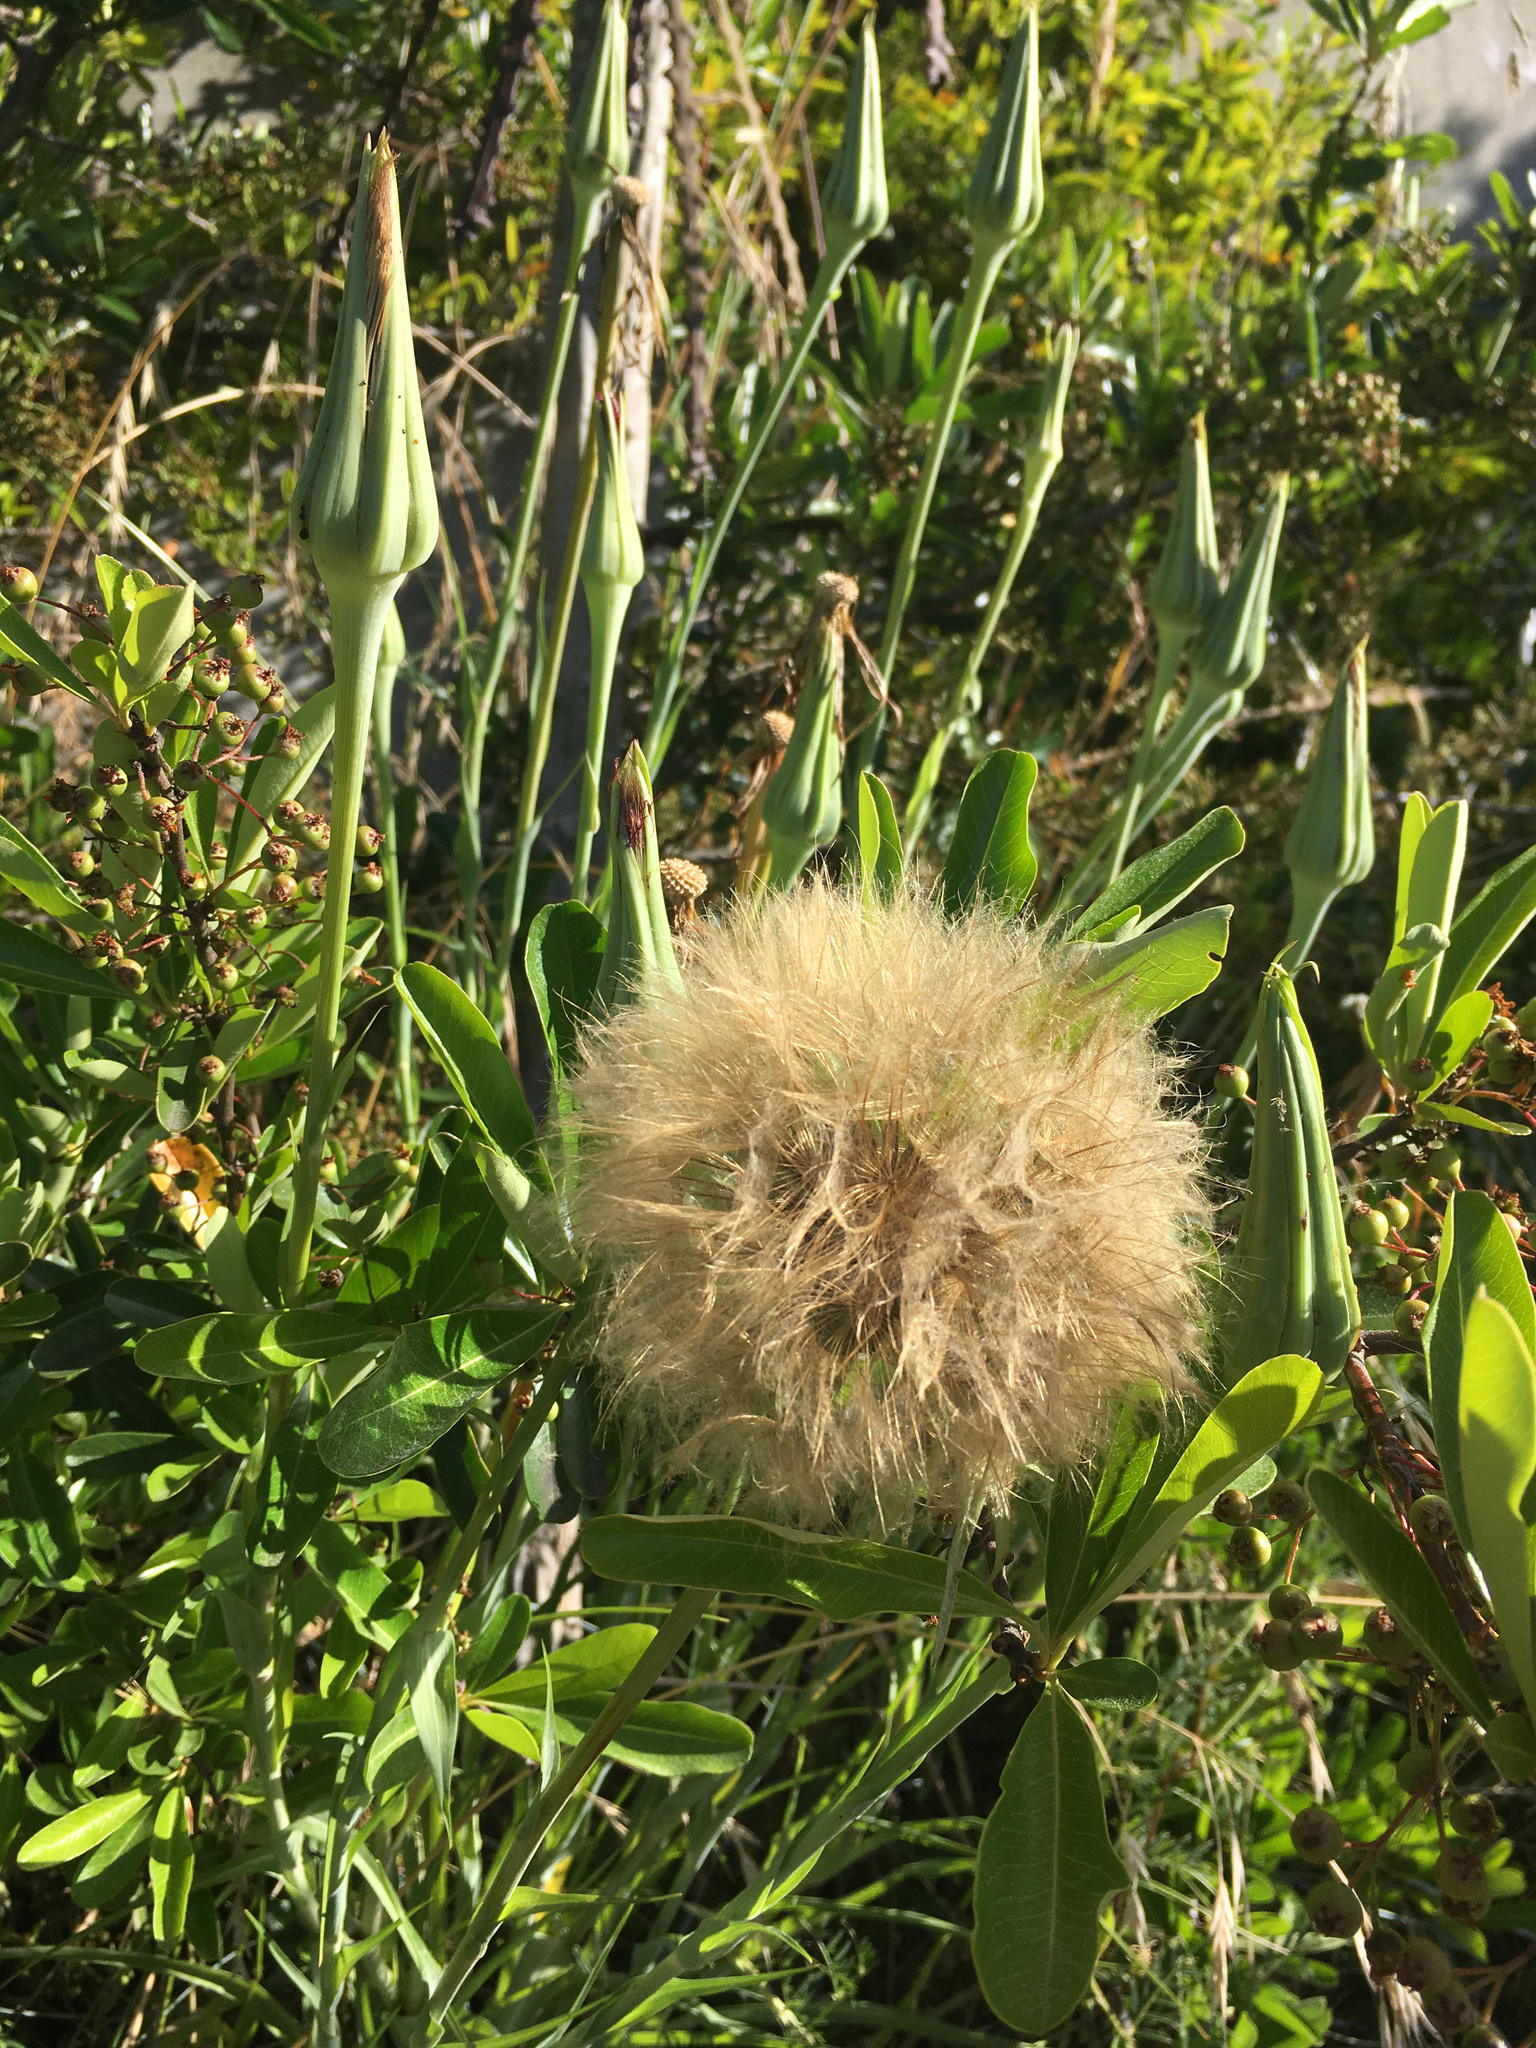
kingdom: Plantae
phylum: Tracheophyta
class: Magnoliopsida
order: Asterales
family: Asteraceae
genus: Tragopogon
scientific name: Tragopogon porrifolius
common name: Salsify
